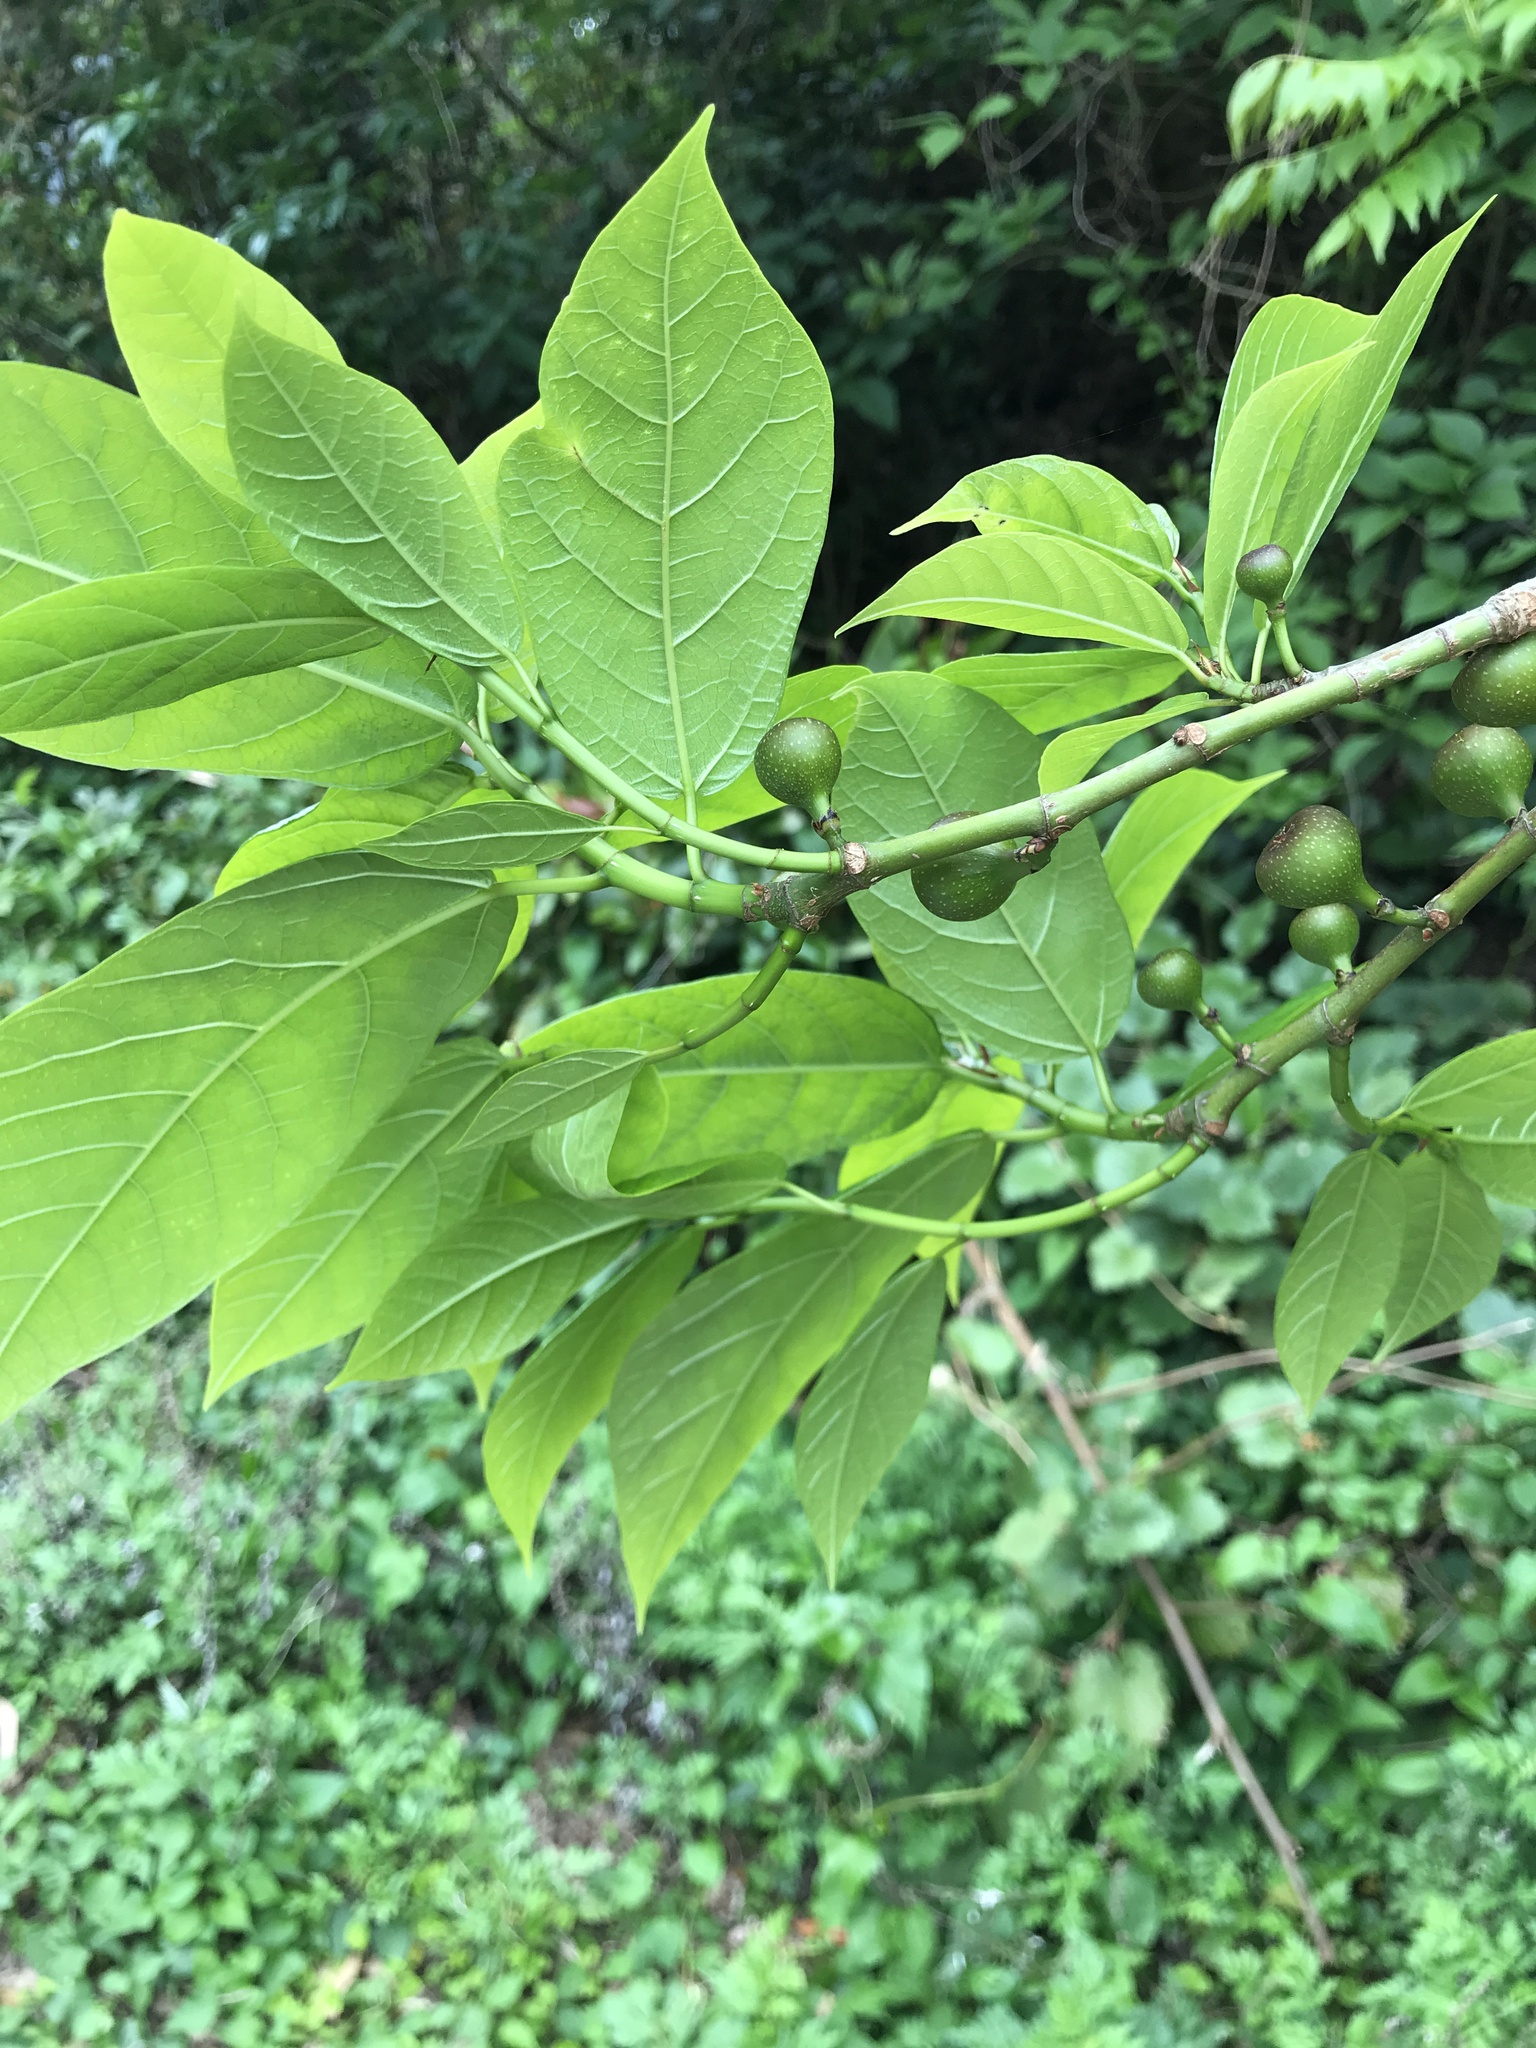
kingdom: Plantae
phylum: Tracheophyta
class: Magnoliopsida
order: Rosales
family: Moraceae
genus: Ficus
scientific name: Ficus erecta
